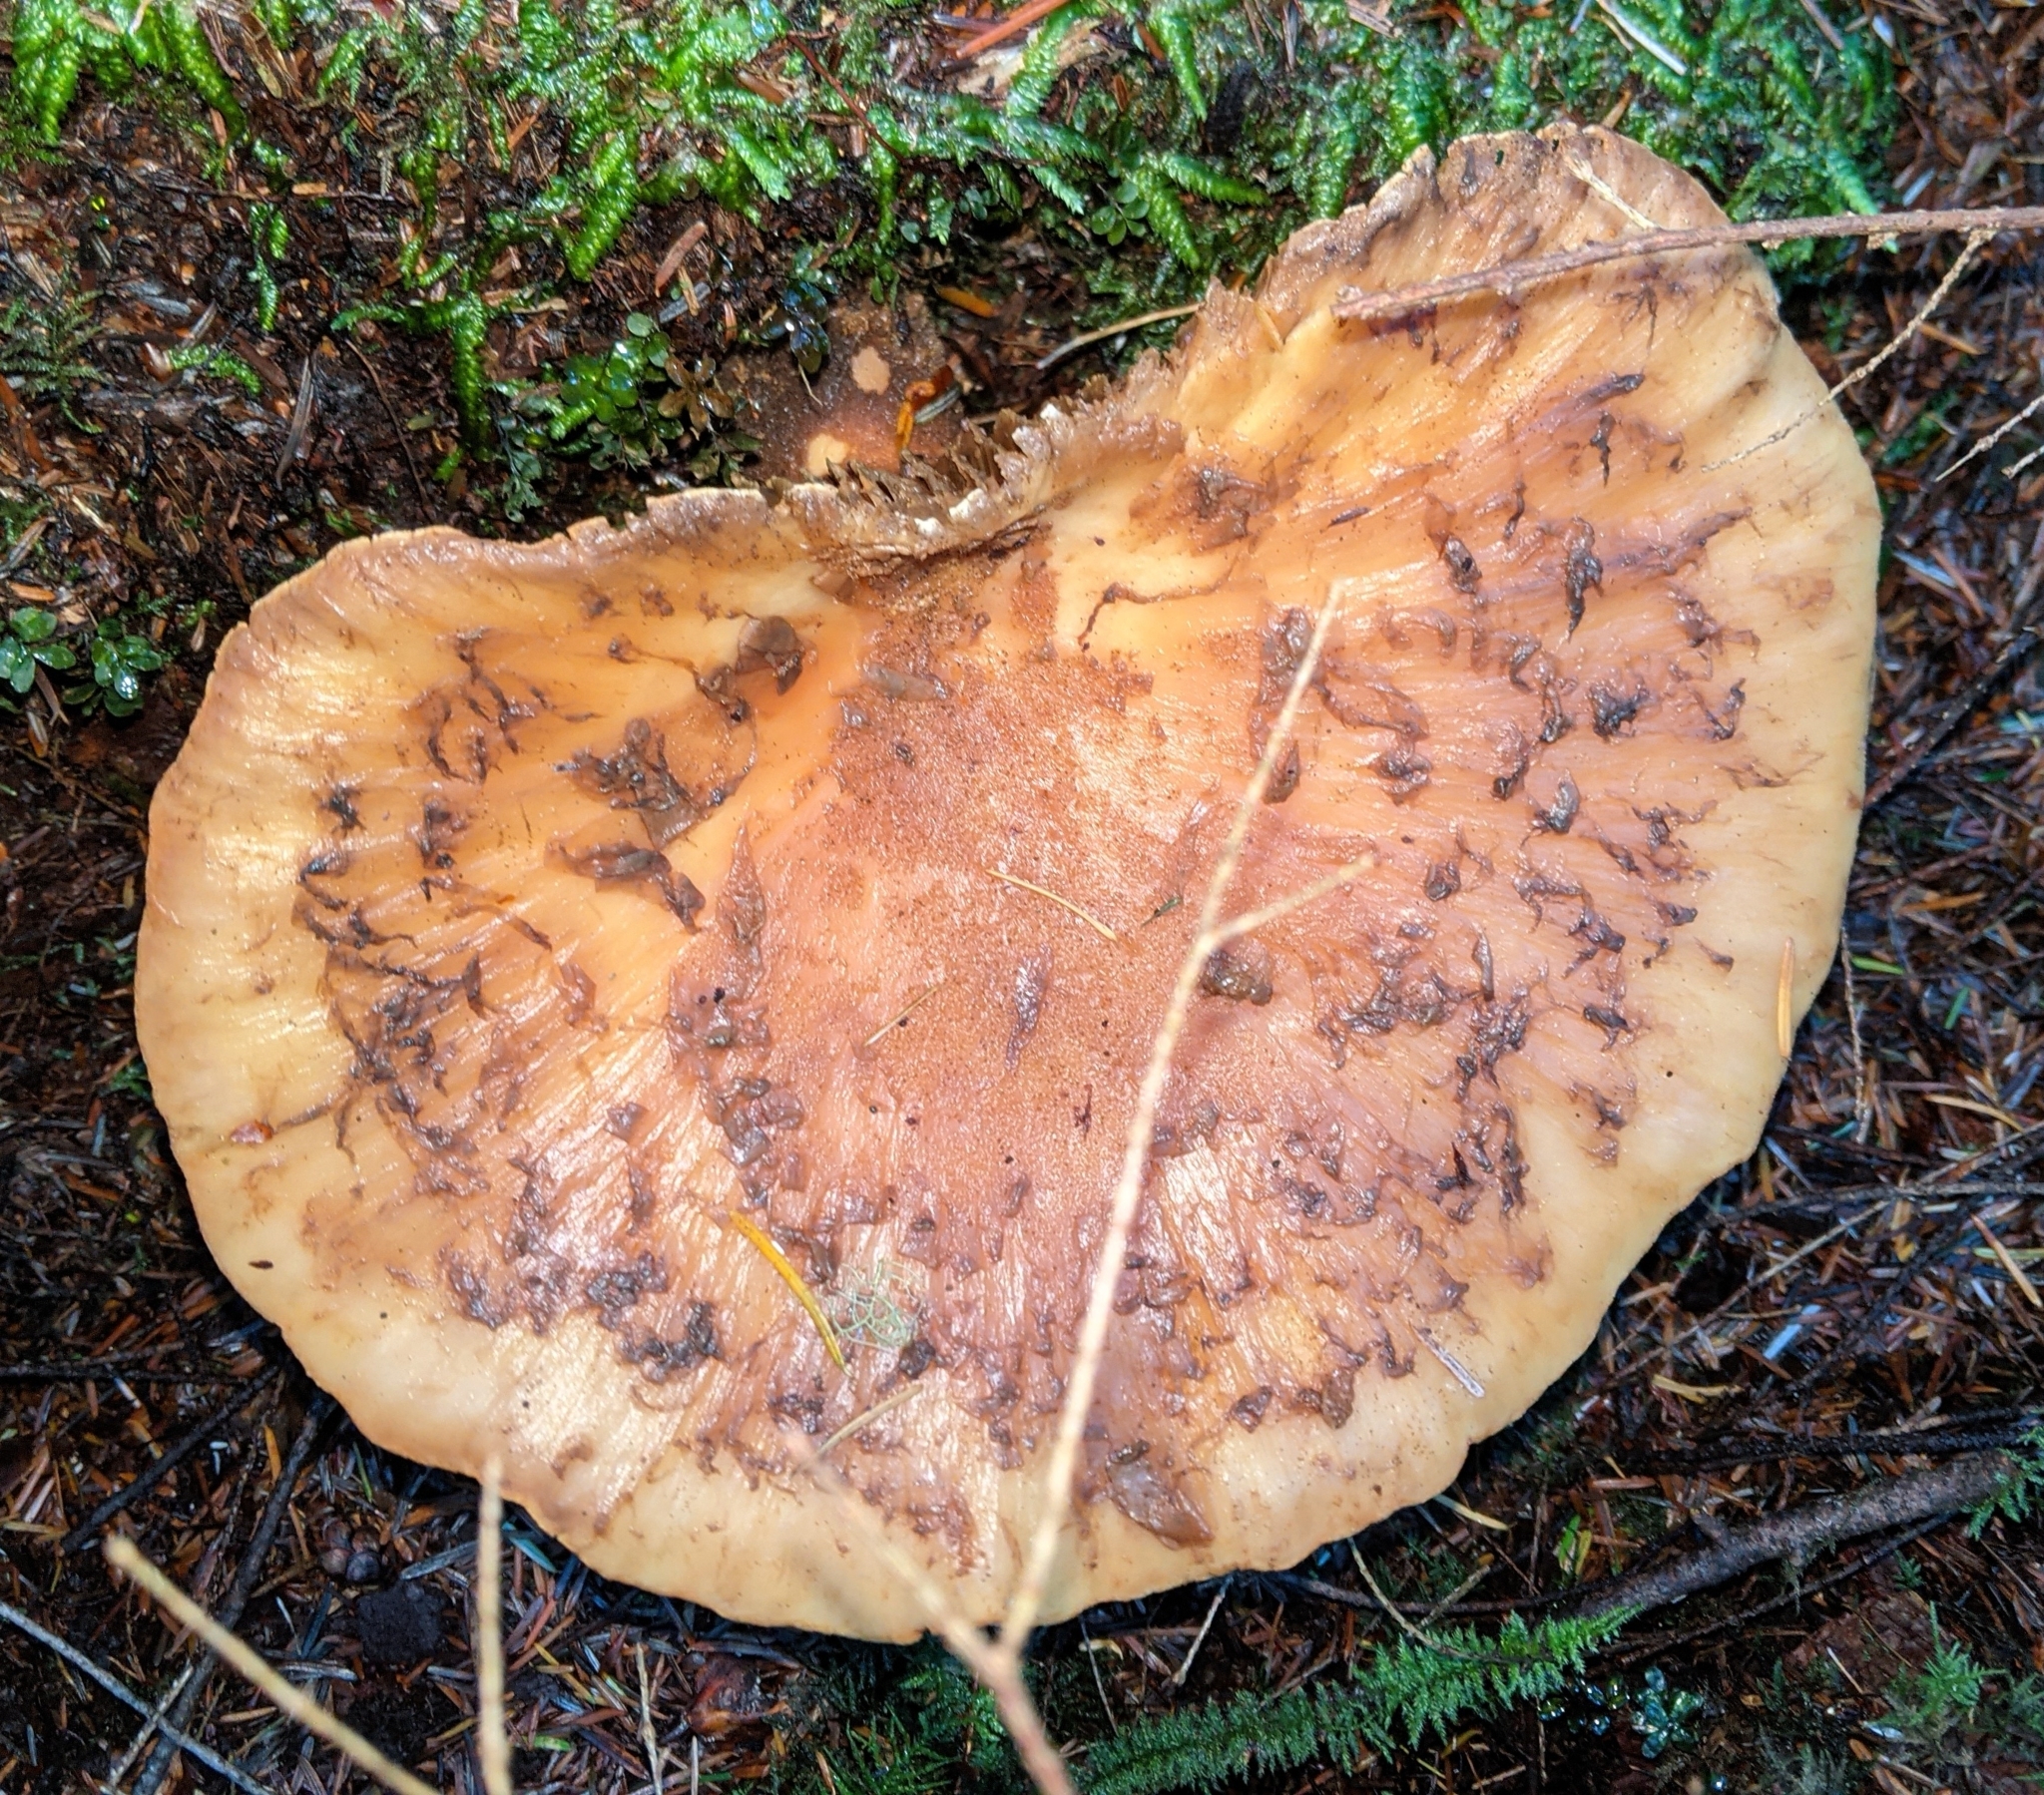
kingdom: Fungi
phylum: Basidiomycota
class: Agaricomycetes
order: Boletales
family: Tapinellaceae
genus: Tapinella
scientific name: Tapinella atrotomentosa
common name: Velvet rollrim
